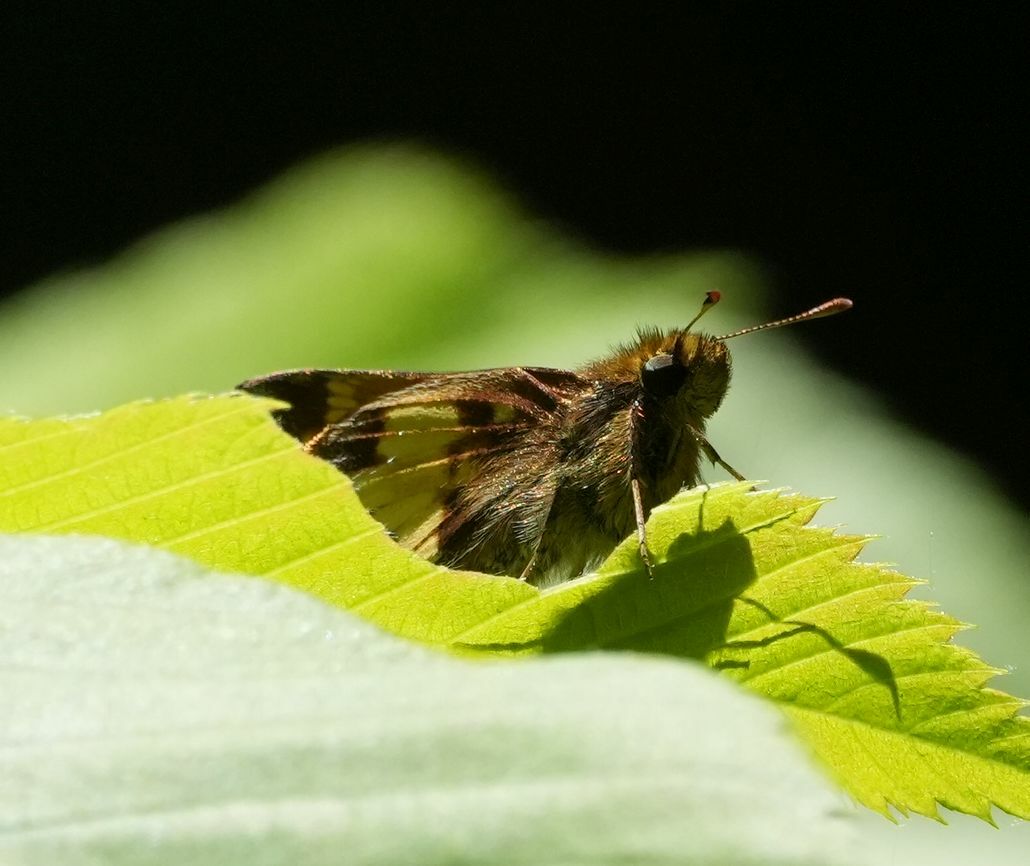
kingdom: Animalia
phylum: Arthropoda
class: Insecta
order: Lepidoptera
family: Hesperiidae
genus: Lon
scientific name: Lon hobomok
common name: Hobomok skipper
